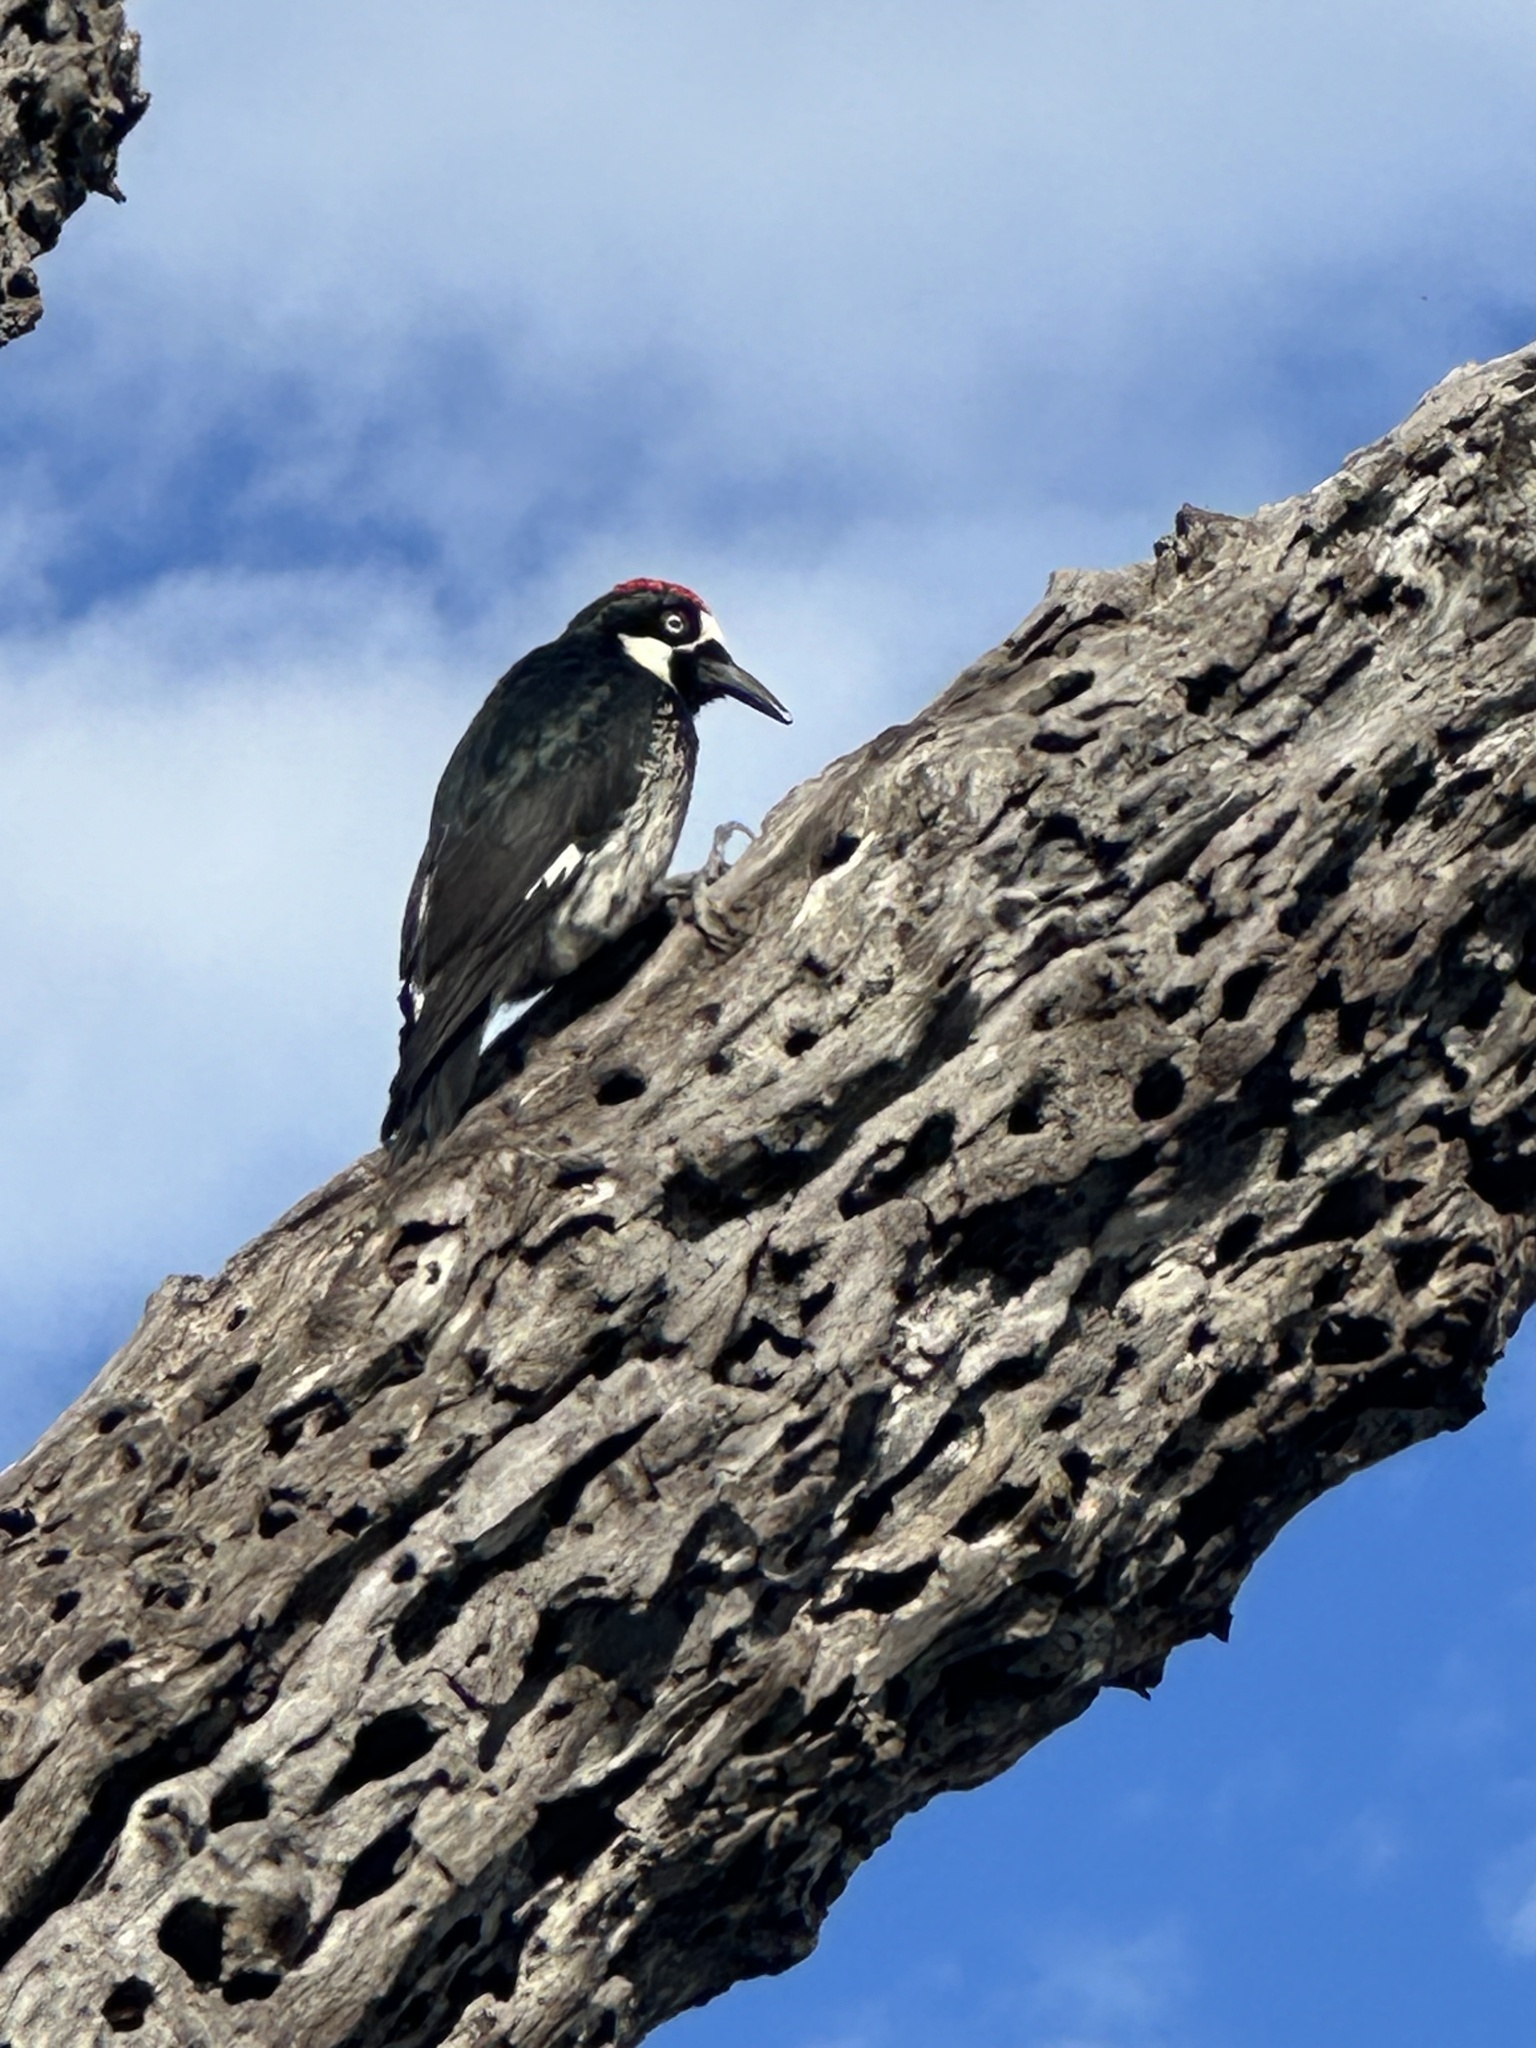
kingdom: Animalia
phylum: Chordata
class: Aves
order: Piciformes
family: Picidae
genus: Melanerpes
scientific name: Melanerpes formicivorus
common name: Acorn woodpecker
